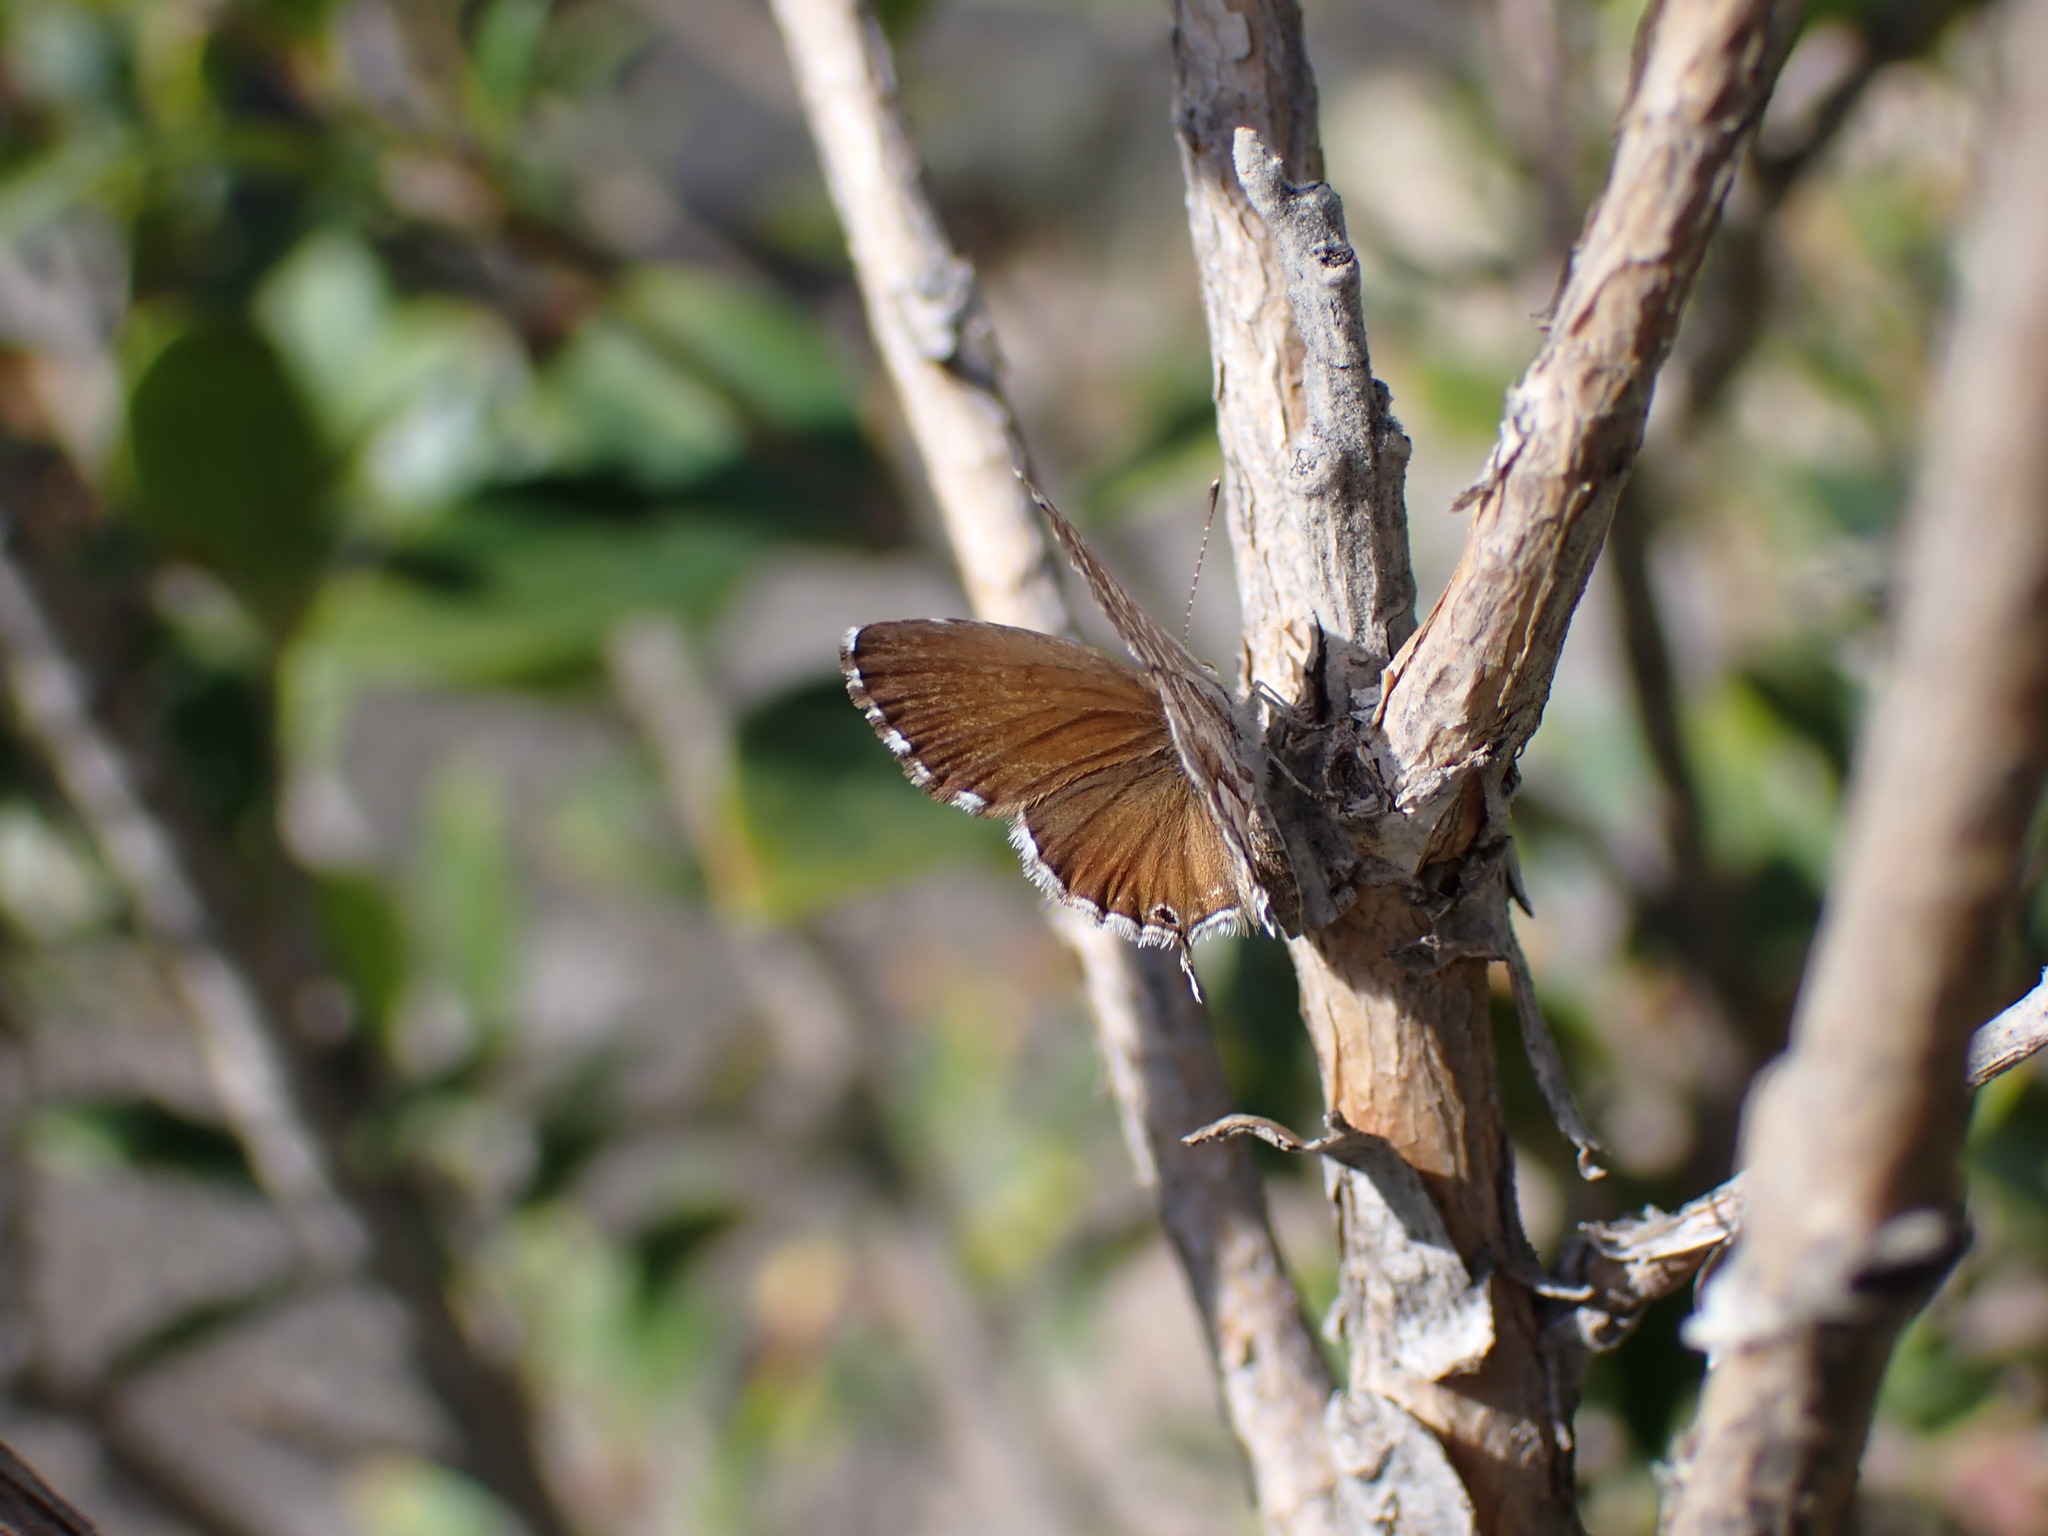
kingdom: Animalia
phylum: Arthropoda
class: Insecta
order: Lepidoptera
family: Lycaenidae
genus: Cacyreus
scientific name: Cacyreus marshalli
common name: Geranium bronze
